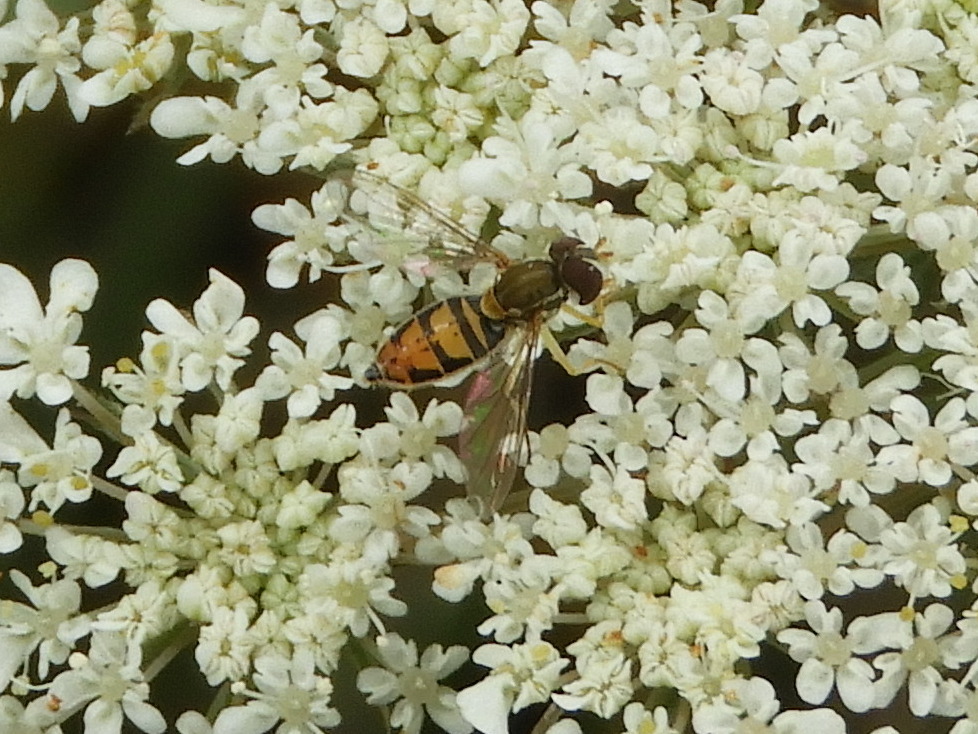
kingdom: Animalia
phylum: Arthropoda
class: Insecta
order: Diptera
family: Syrphidae
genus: Toxomerus
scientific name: Toxomerus marginatus
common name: Syrphid fly
